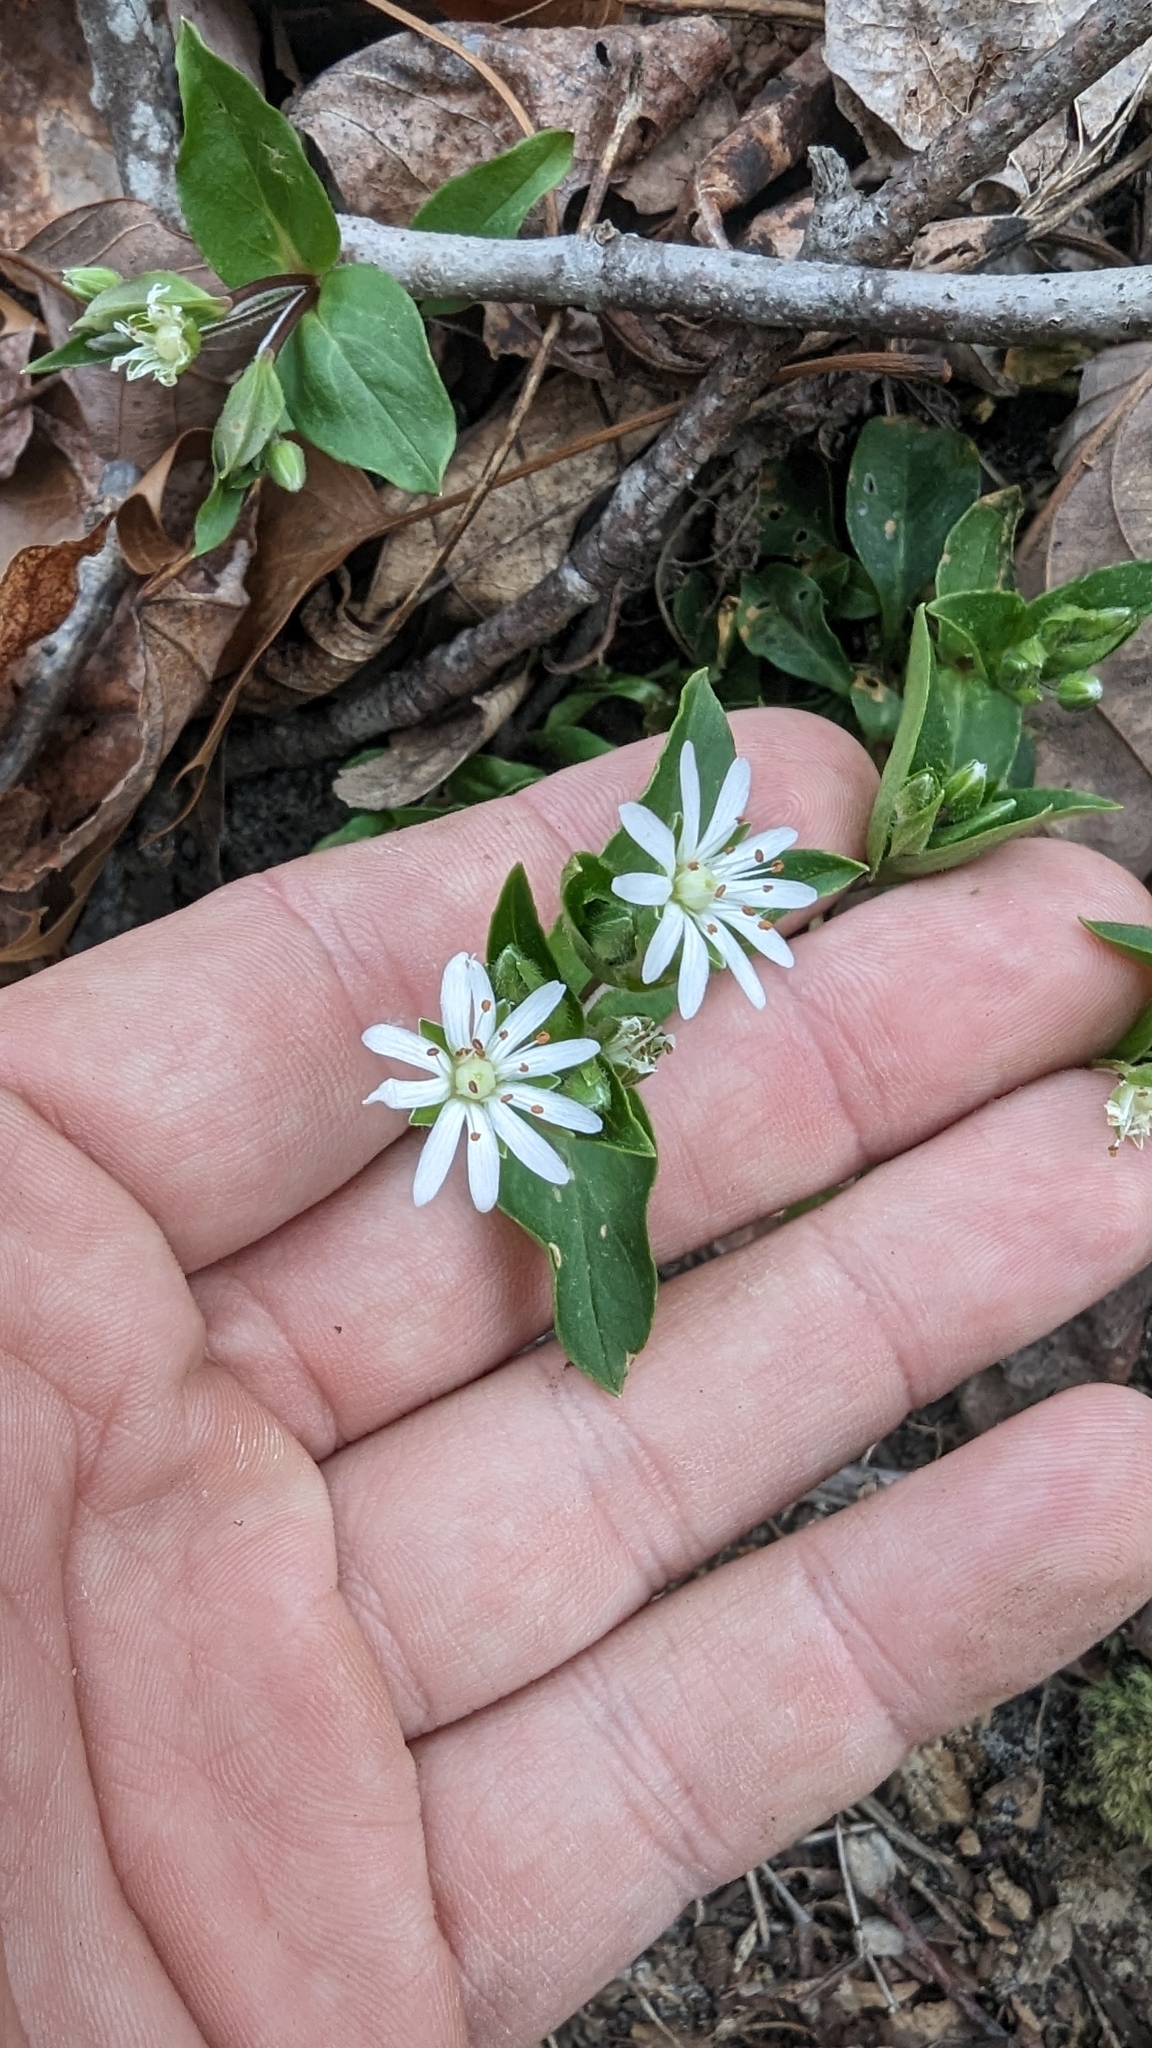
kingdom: Plantae
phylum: Tracheophyta
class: Magnoliopsida
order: Caryophyllales
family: Caryophyllaceae
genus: Stellaria
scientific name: Stellaria pubera
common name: Star chickweed
